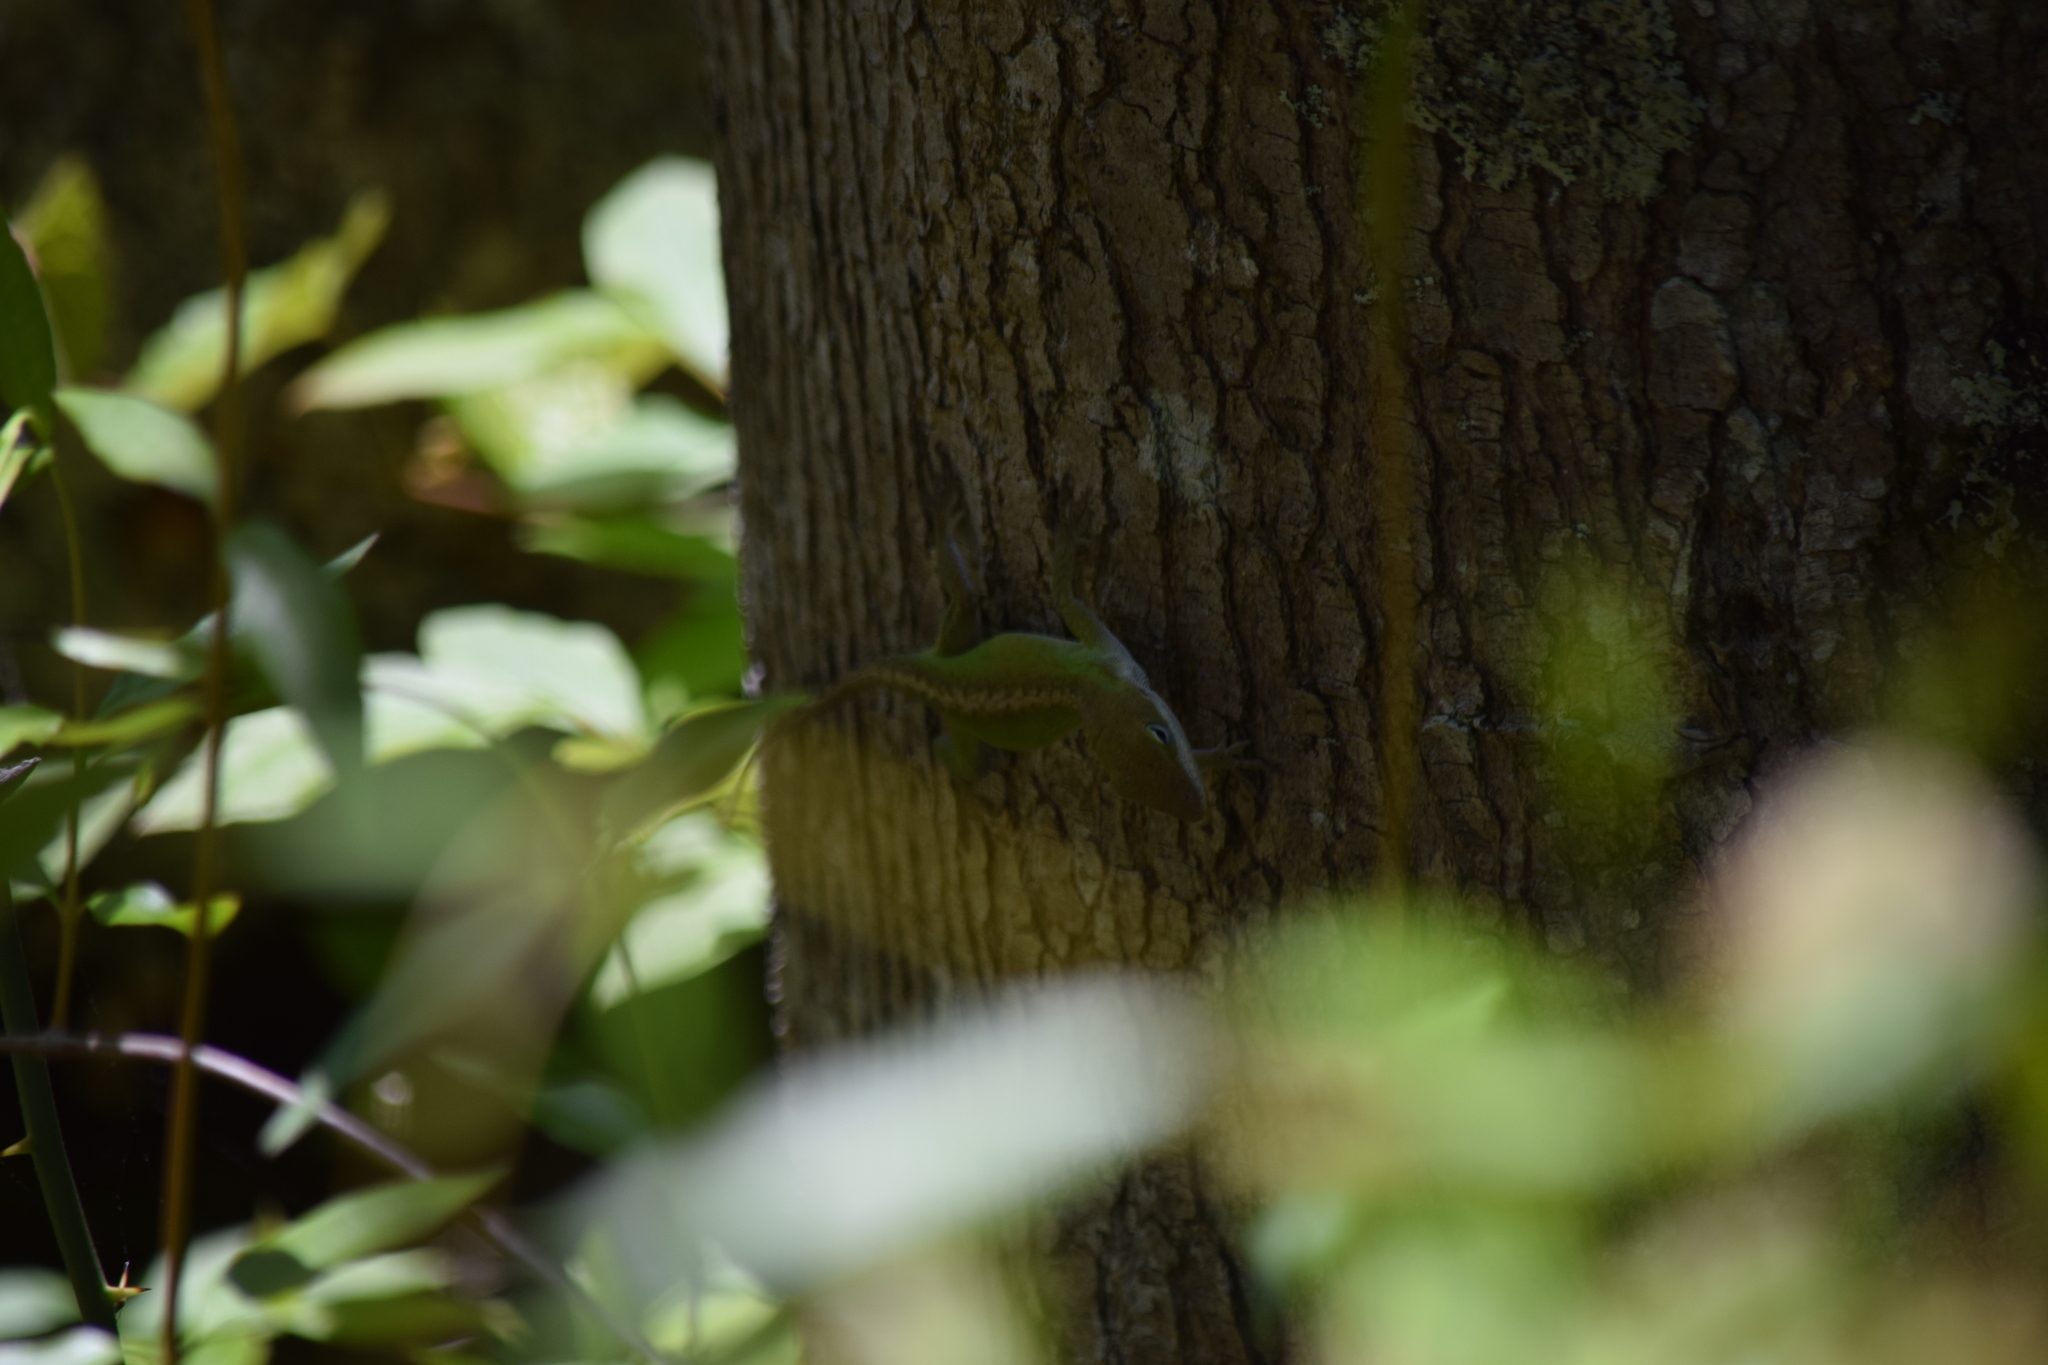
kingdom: Animalia
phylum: Chordata
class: Squamata
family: Dactyloidae
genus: Anolis
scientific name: Anolis carolinensis
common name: Green anole
